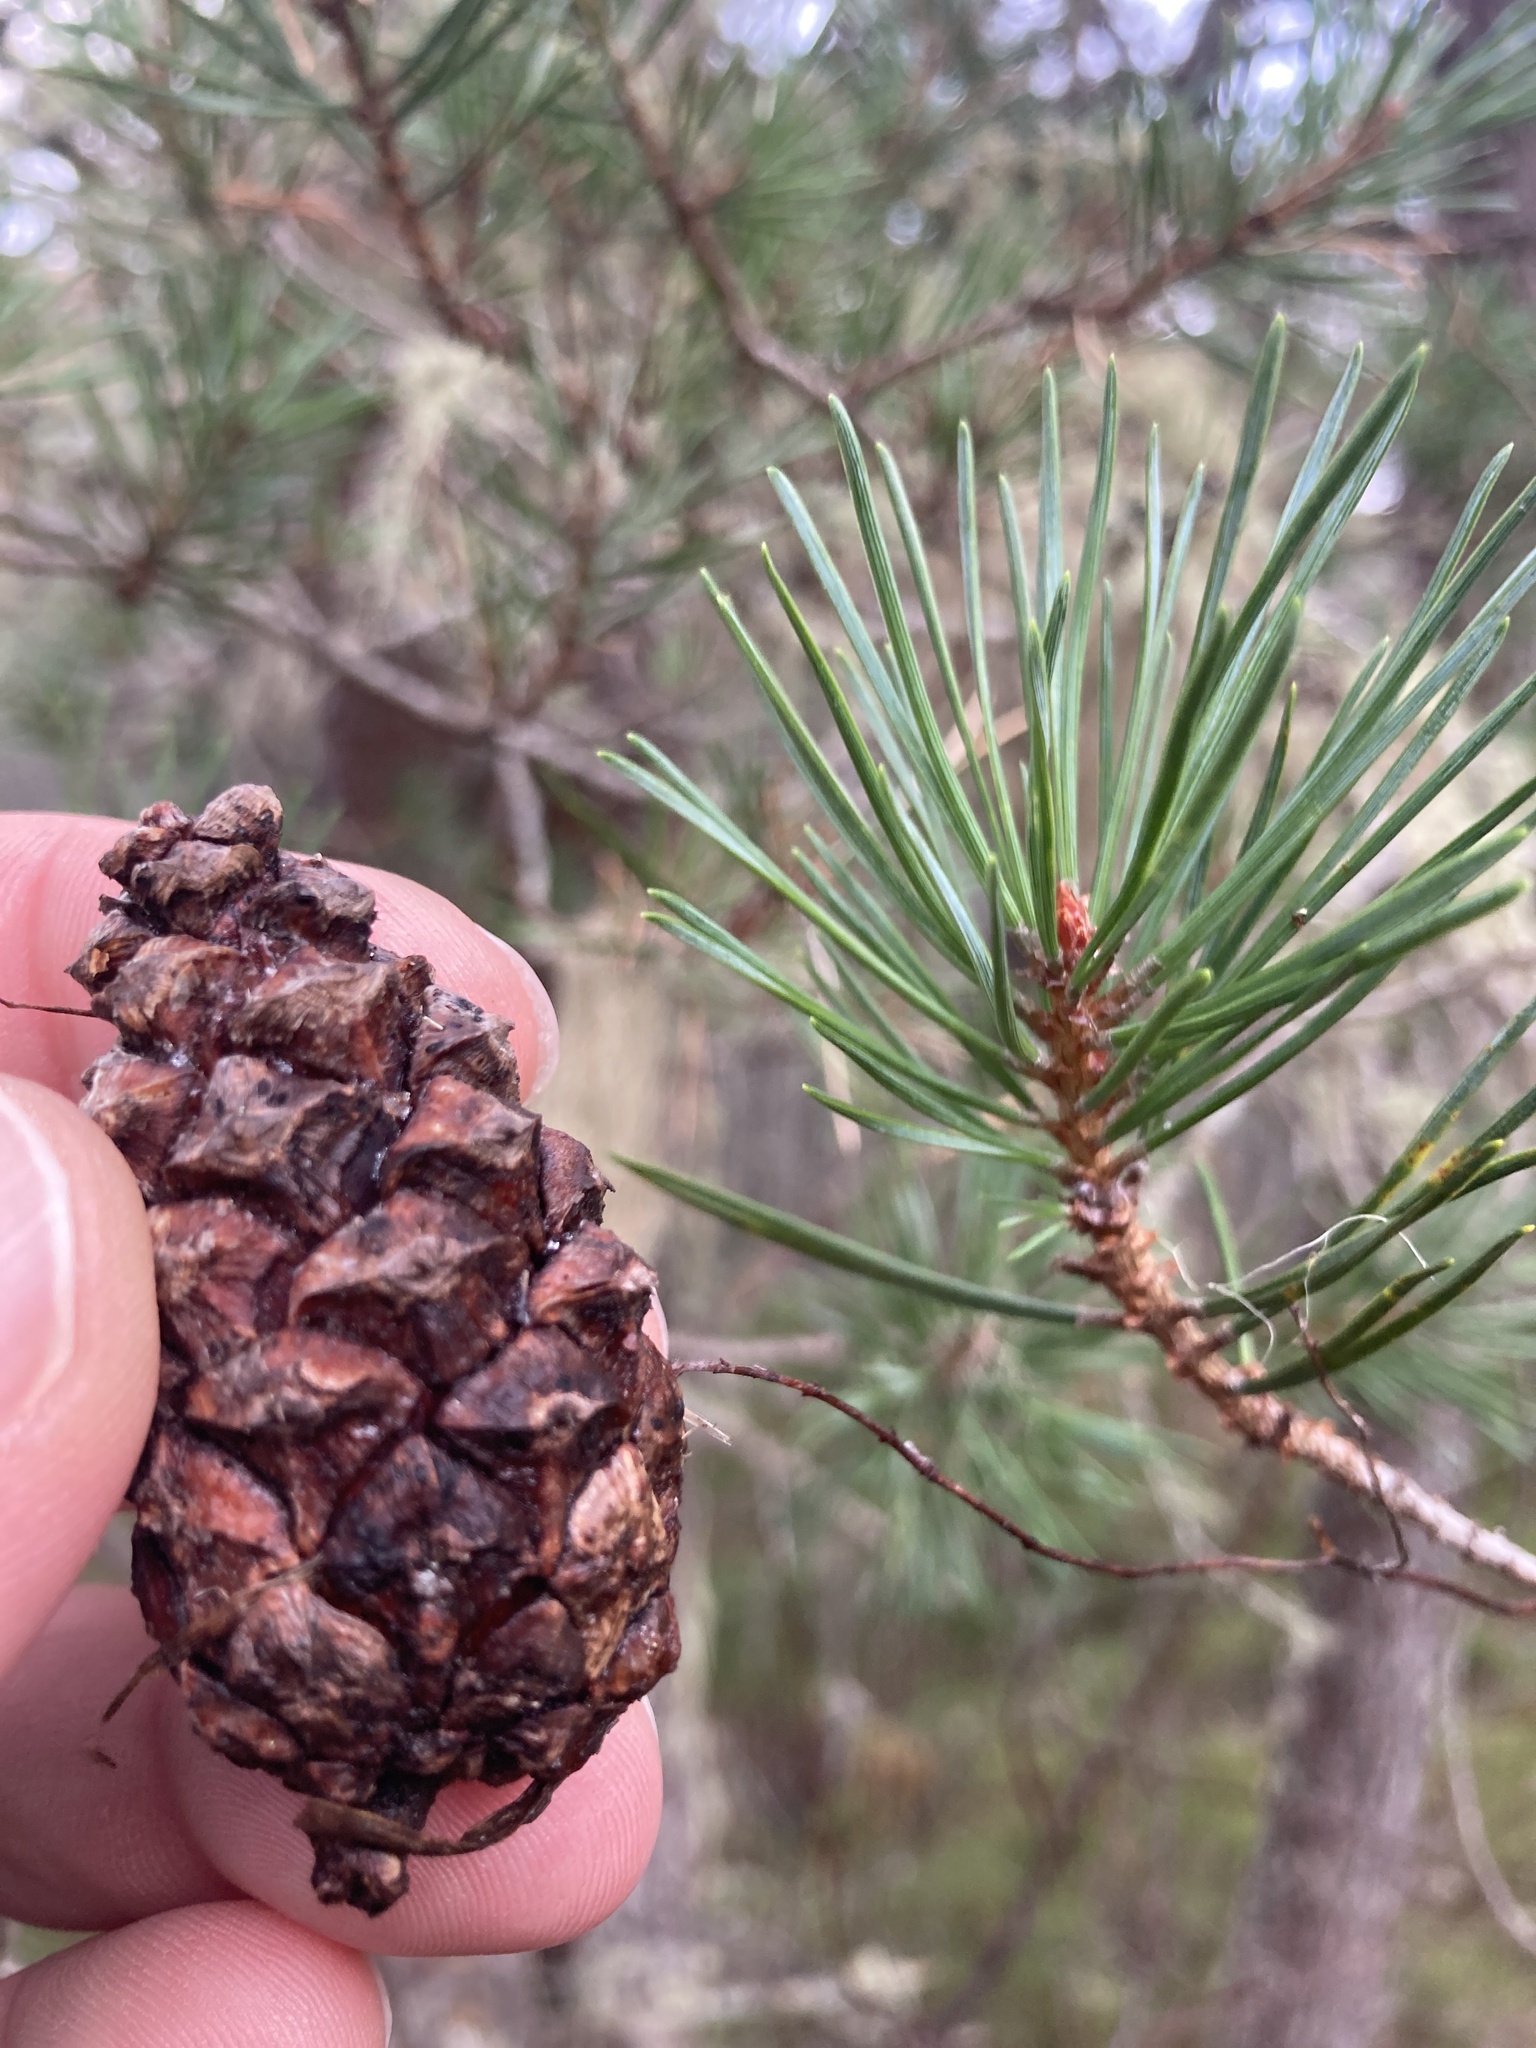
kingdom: Plantae
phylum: Tracheophyta
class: Pinopsida
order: Pinales
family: Pinaceae
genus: Pinus
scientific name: Pinus sylvestris
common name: Scots pine
